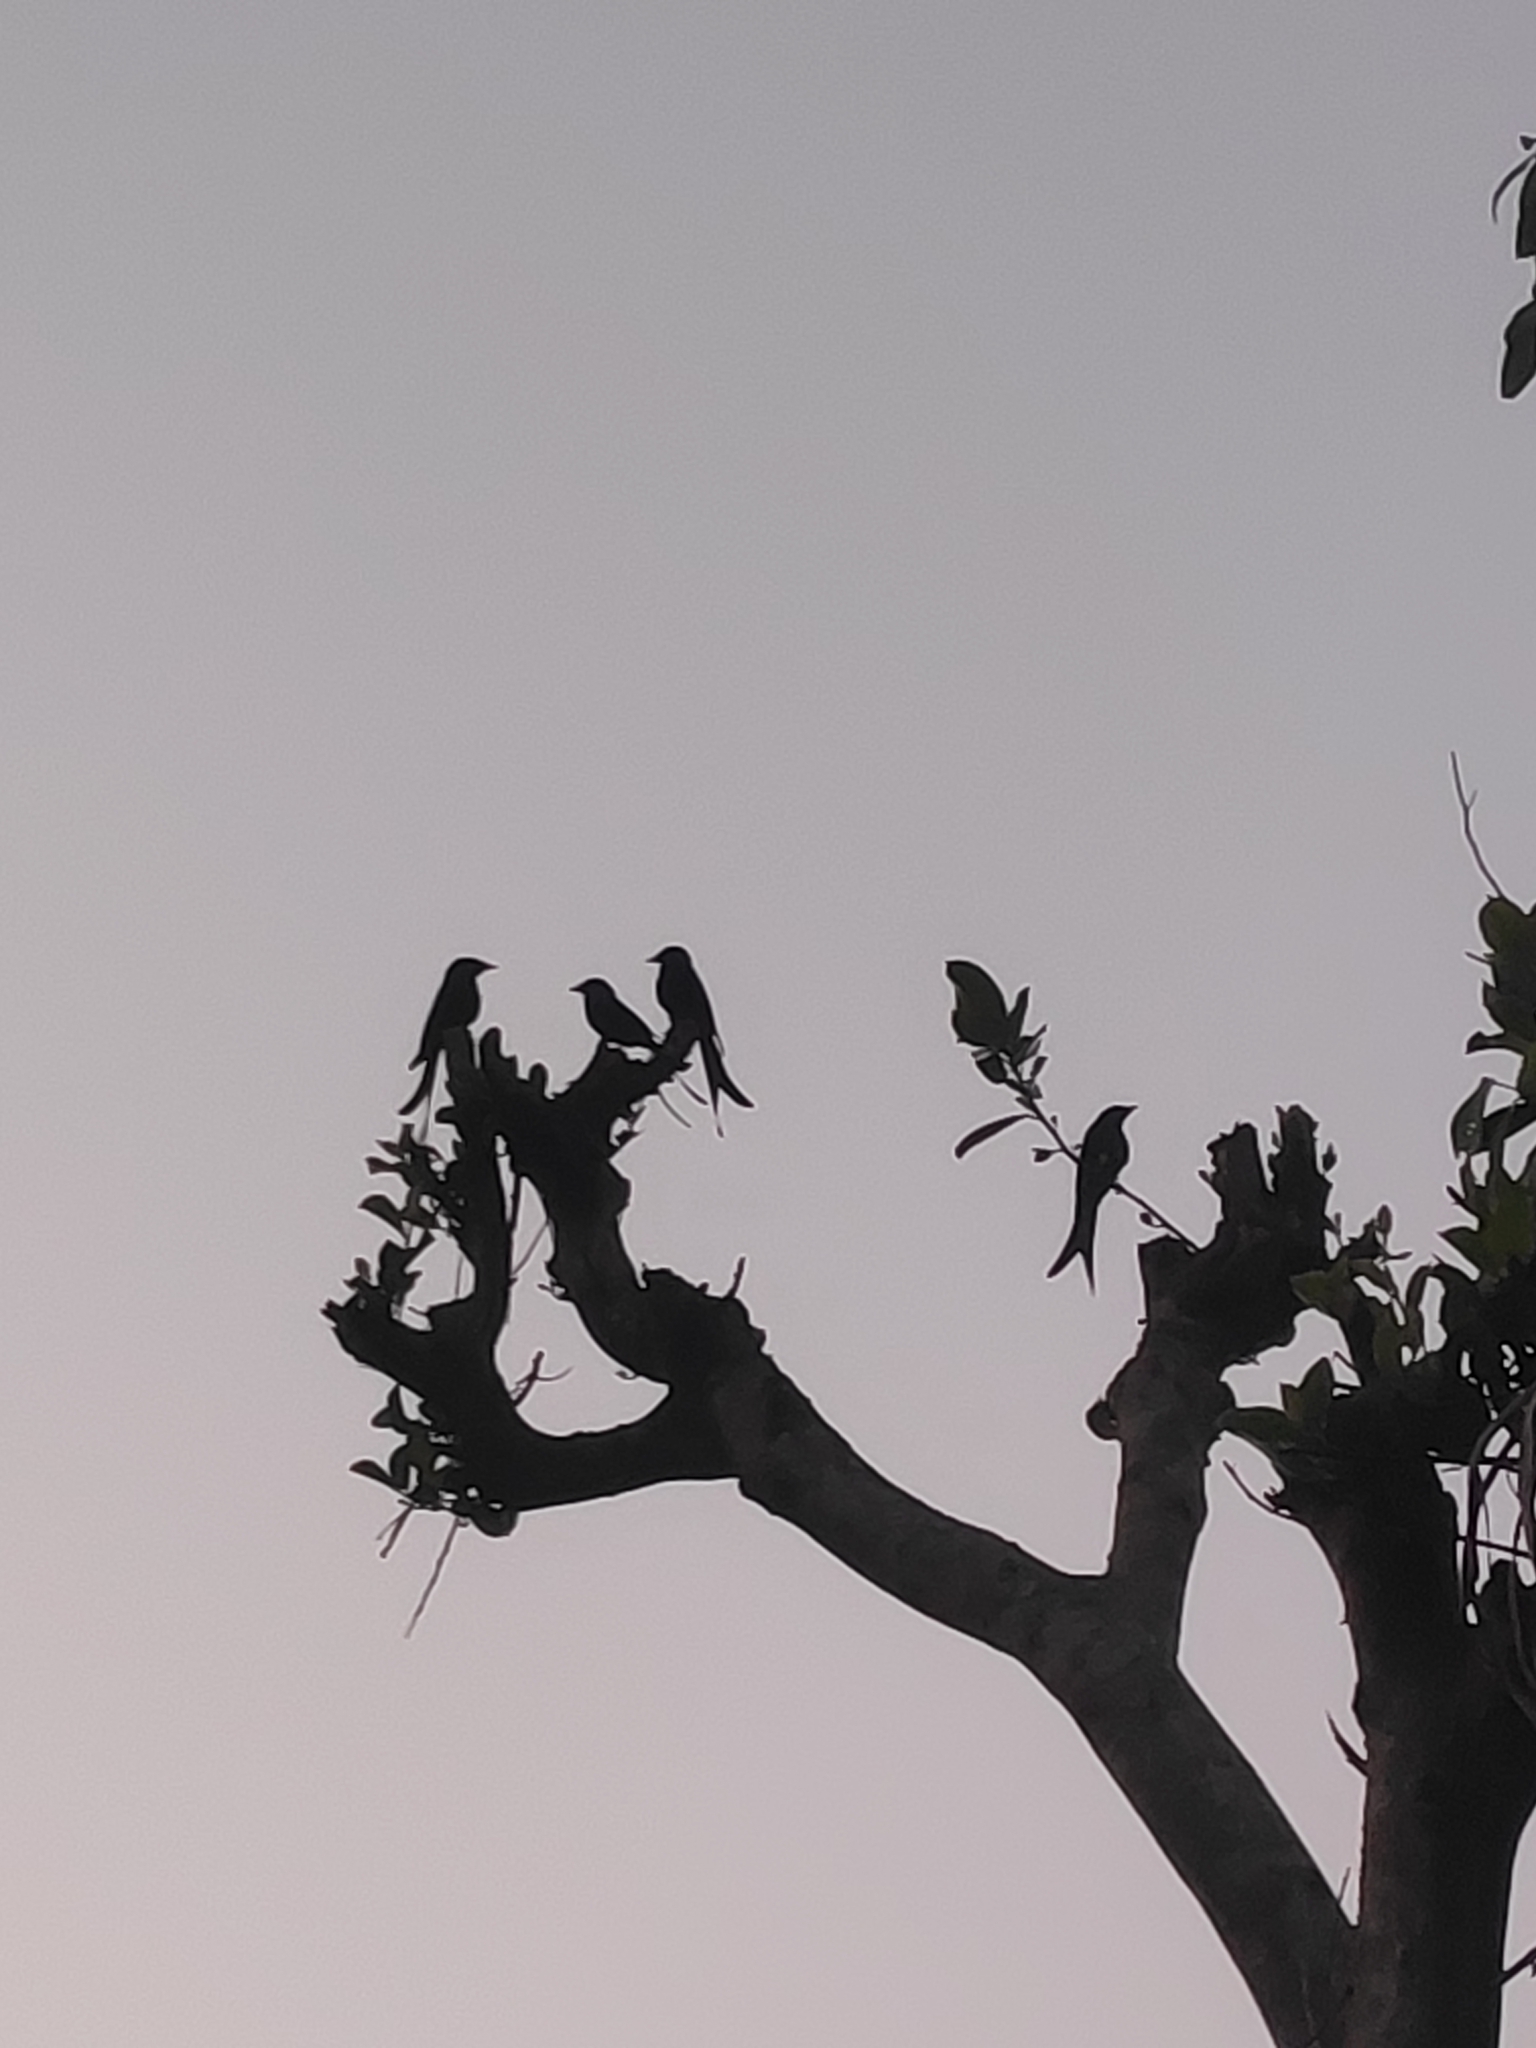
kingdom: Animalia
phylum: Chordata
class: Aves
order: Passeriformes
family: Dicruridae
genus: Dicrurus
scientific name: Dicrurus macrocercus
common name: Black drongo
